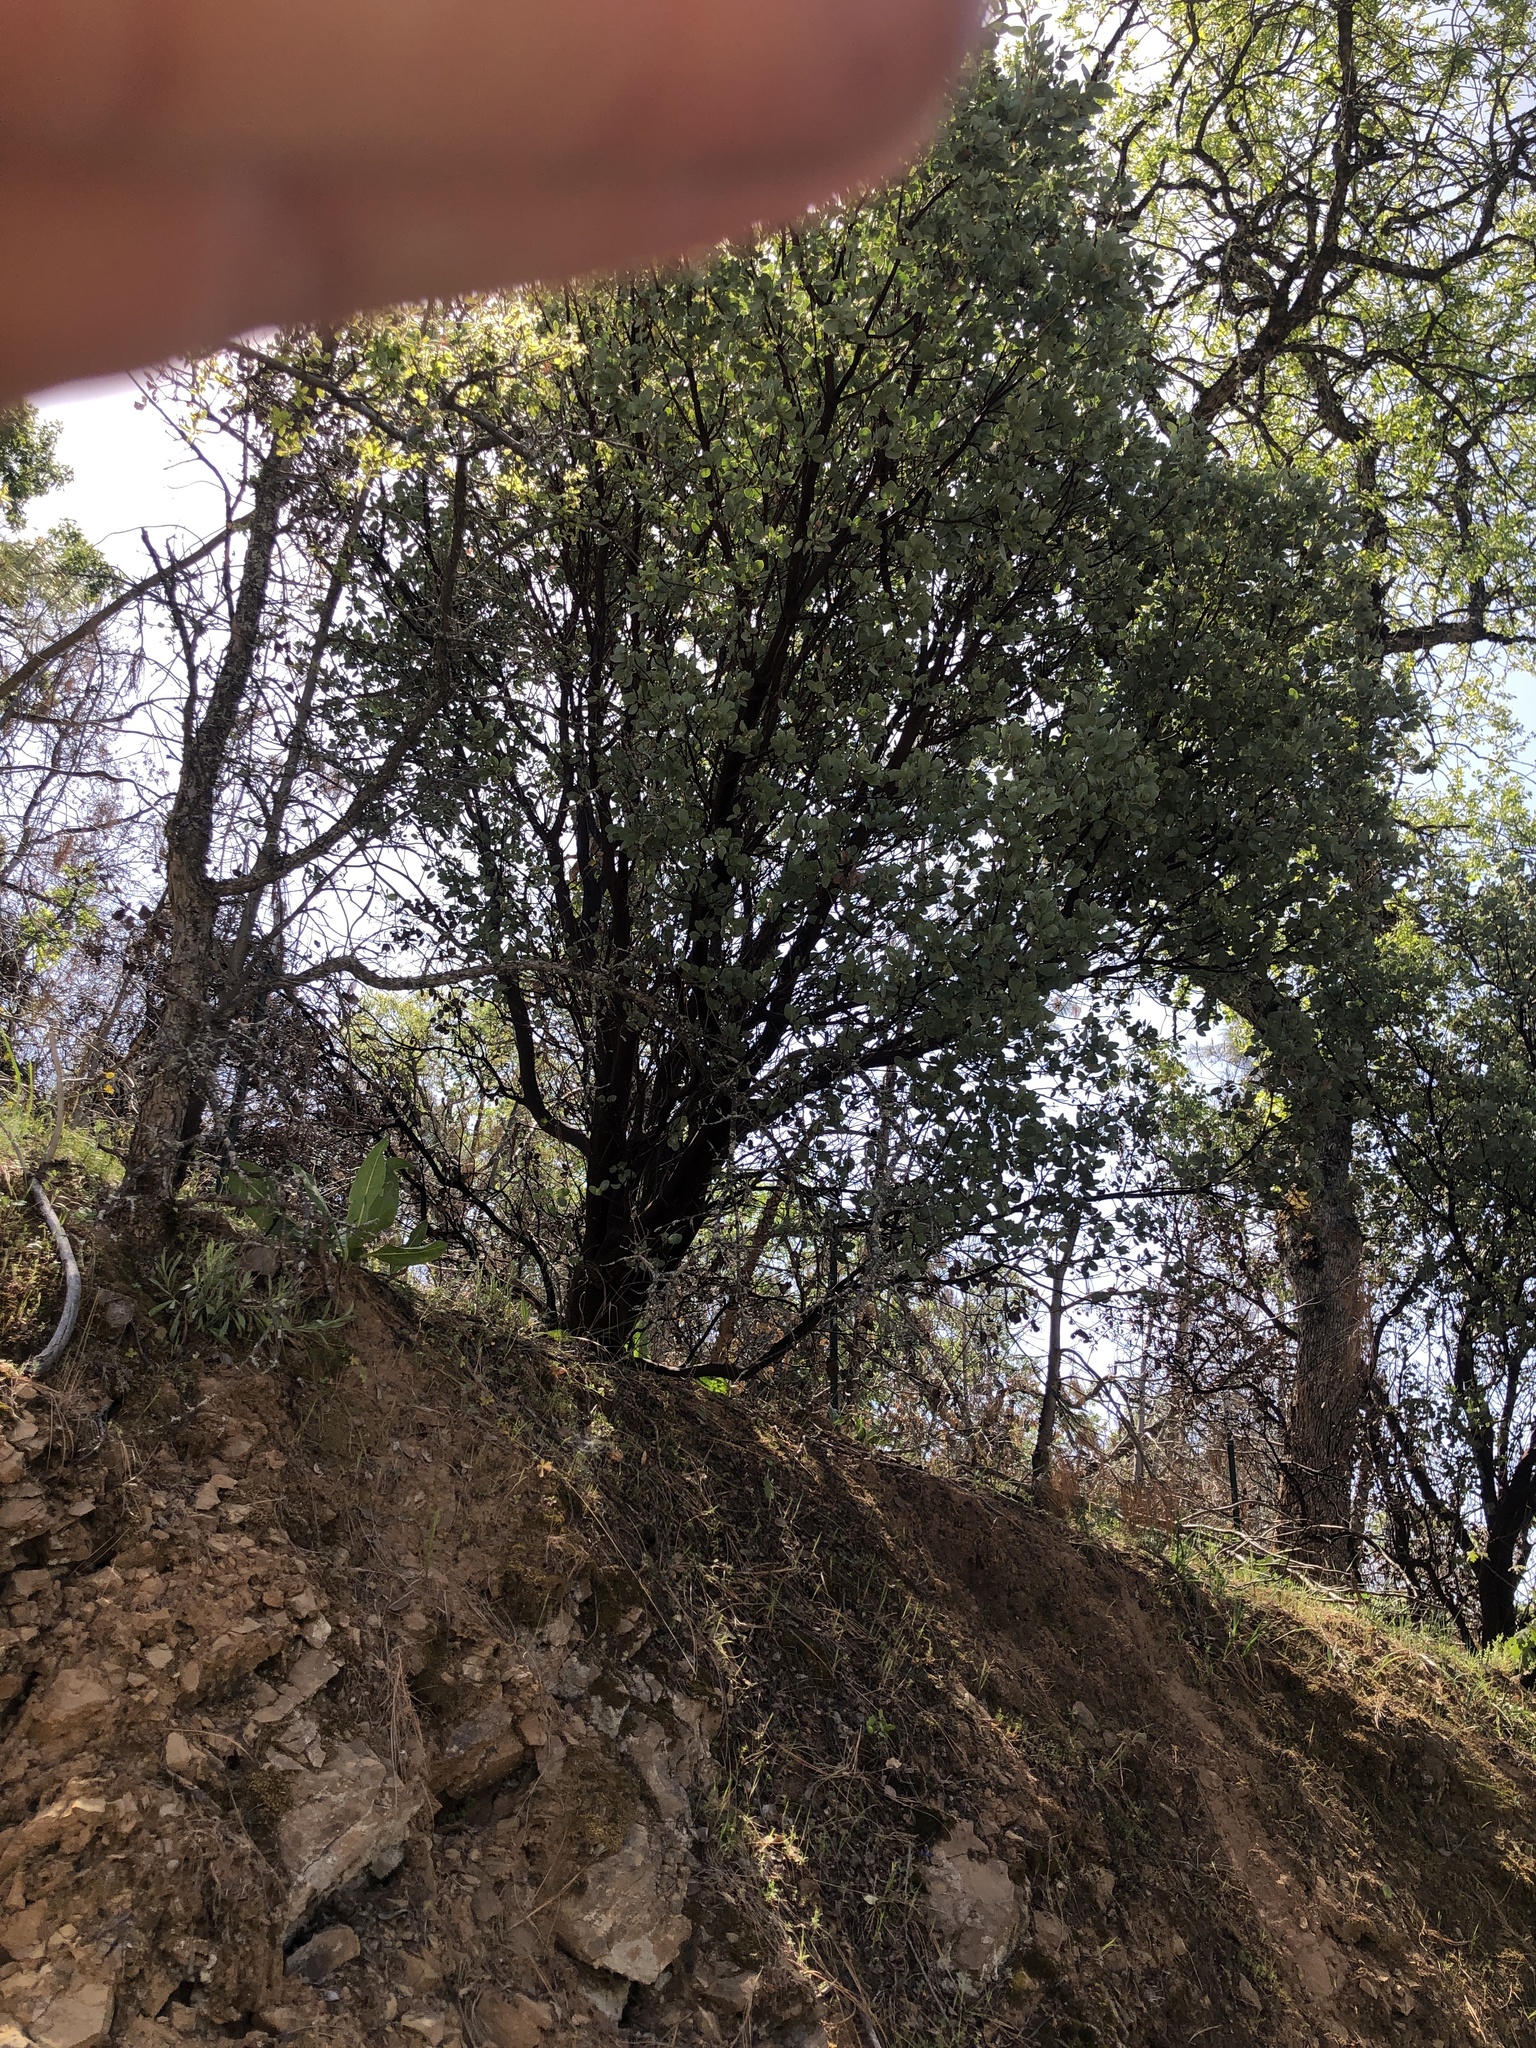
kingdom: Plantae
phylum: Tracheophyta
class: Magnoliopsida
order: Ericales
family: Ericaceae
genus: Arctostaphylos
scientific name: Arctostaphylos glauca
